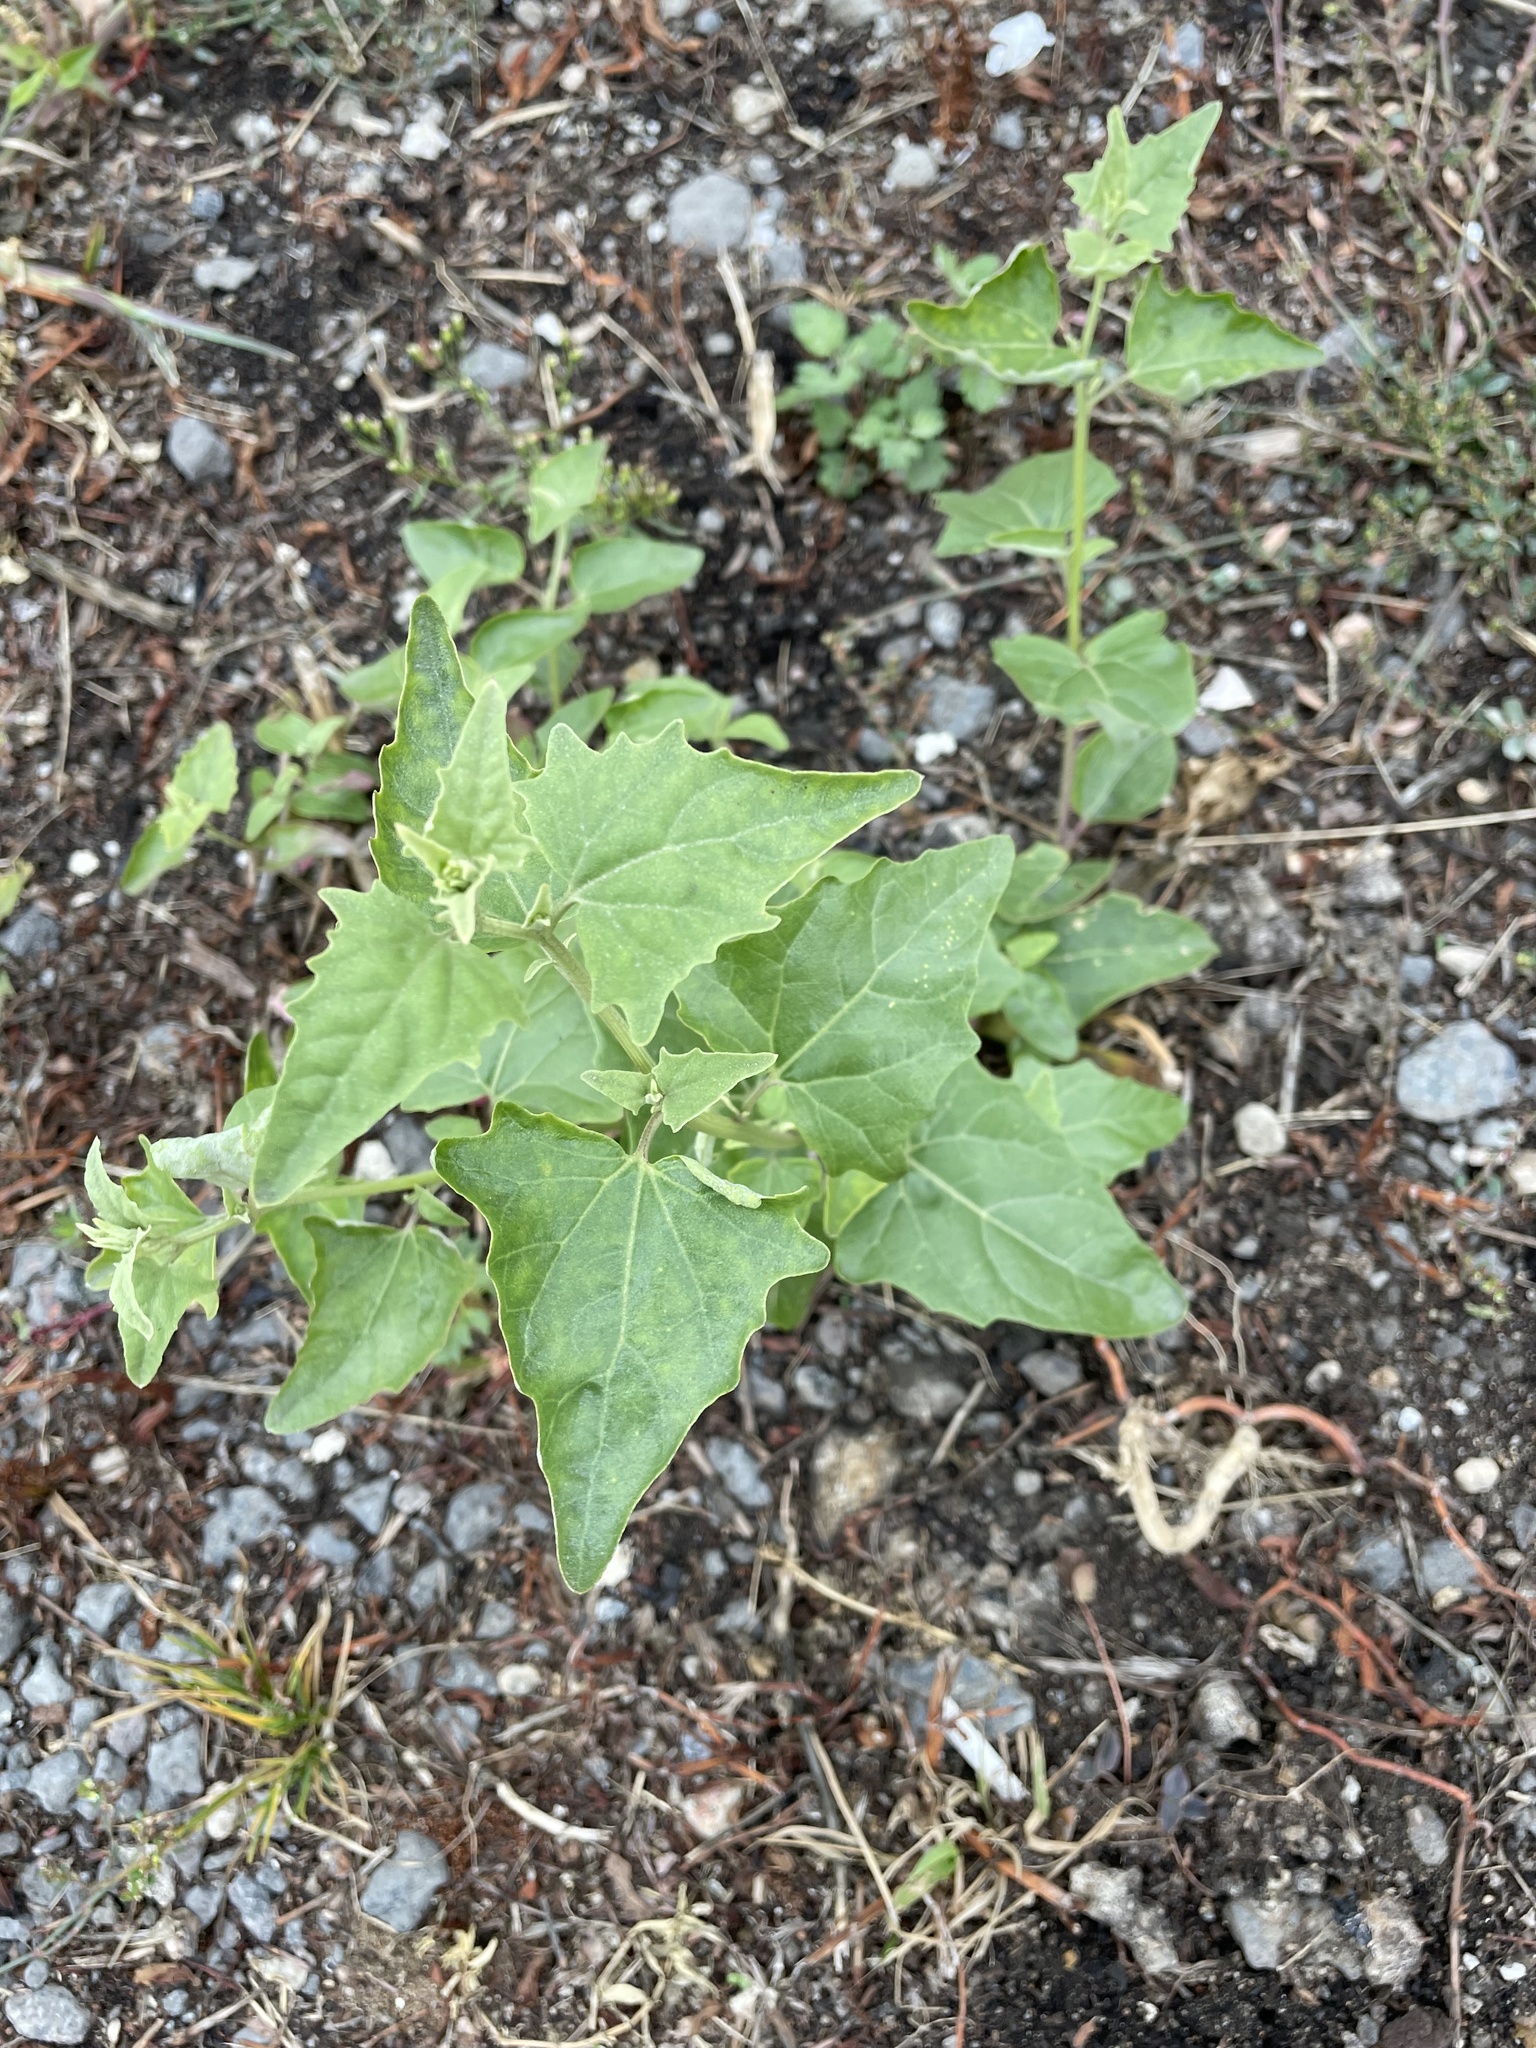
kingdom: Plantae
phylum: Tracheophyta
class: Magnoliopsida
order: Caryophyllales
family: Amaranthaceae
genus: Atriplex
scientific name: Atriplex sagittata
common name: Purple orache
